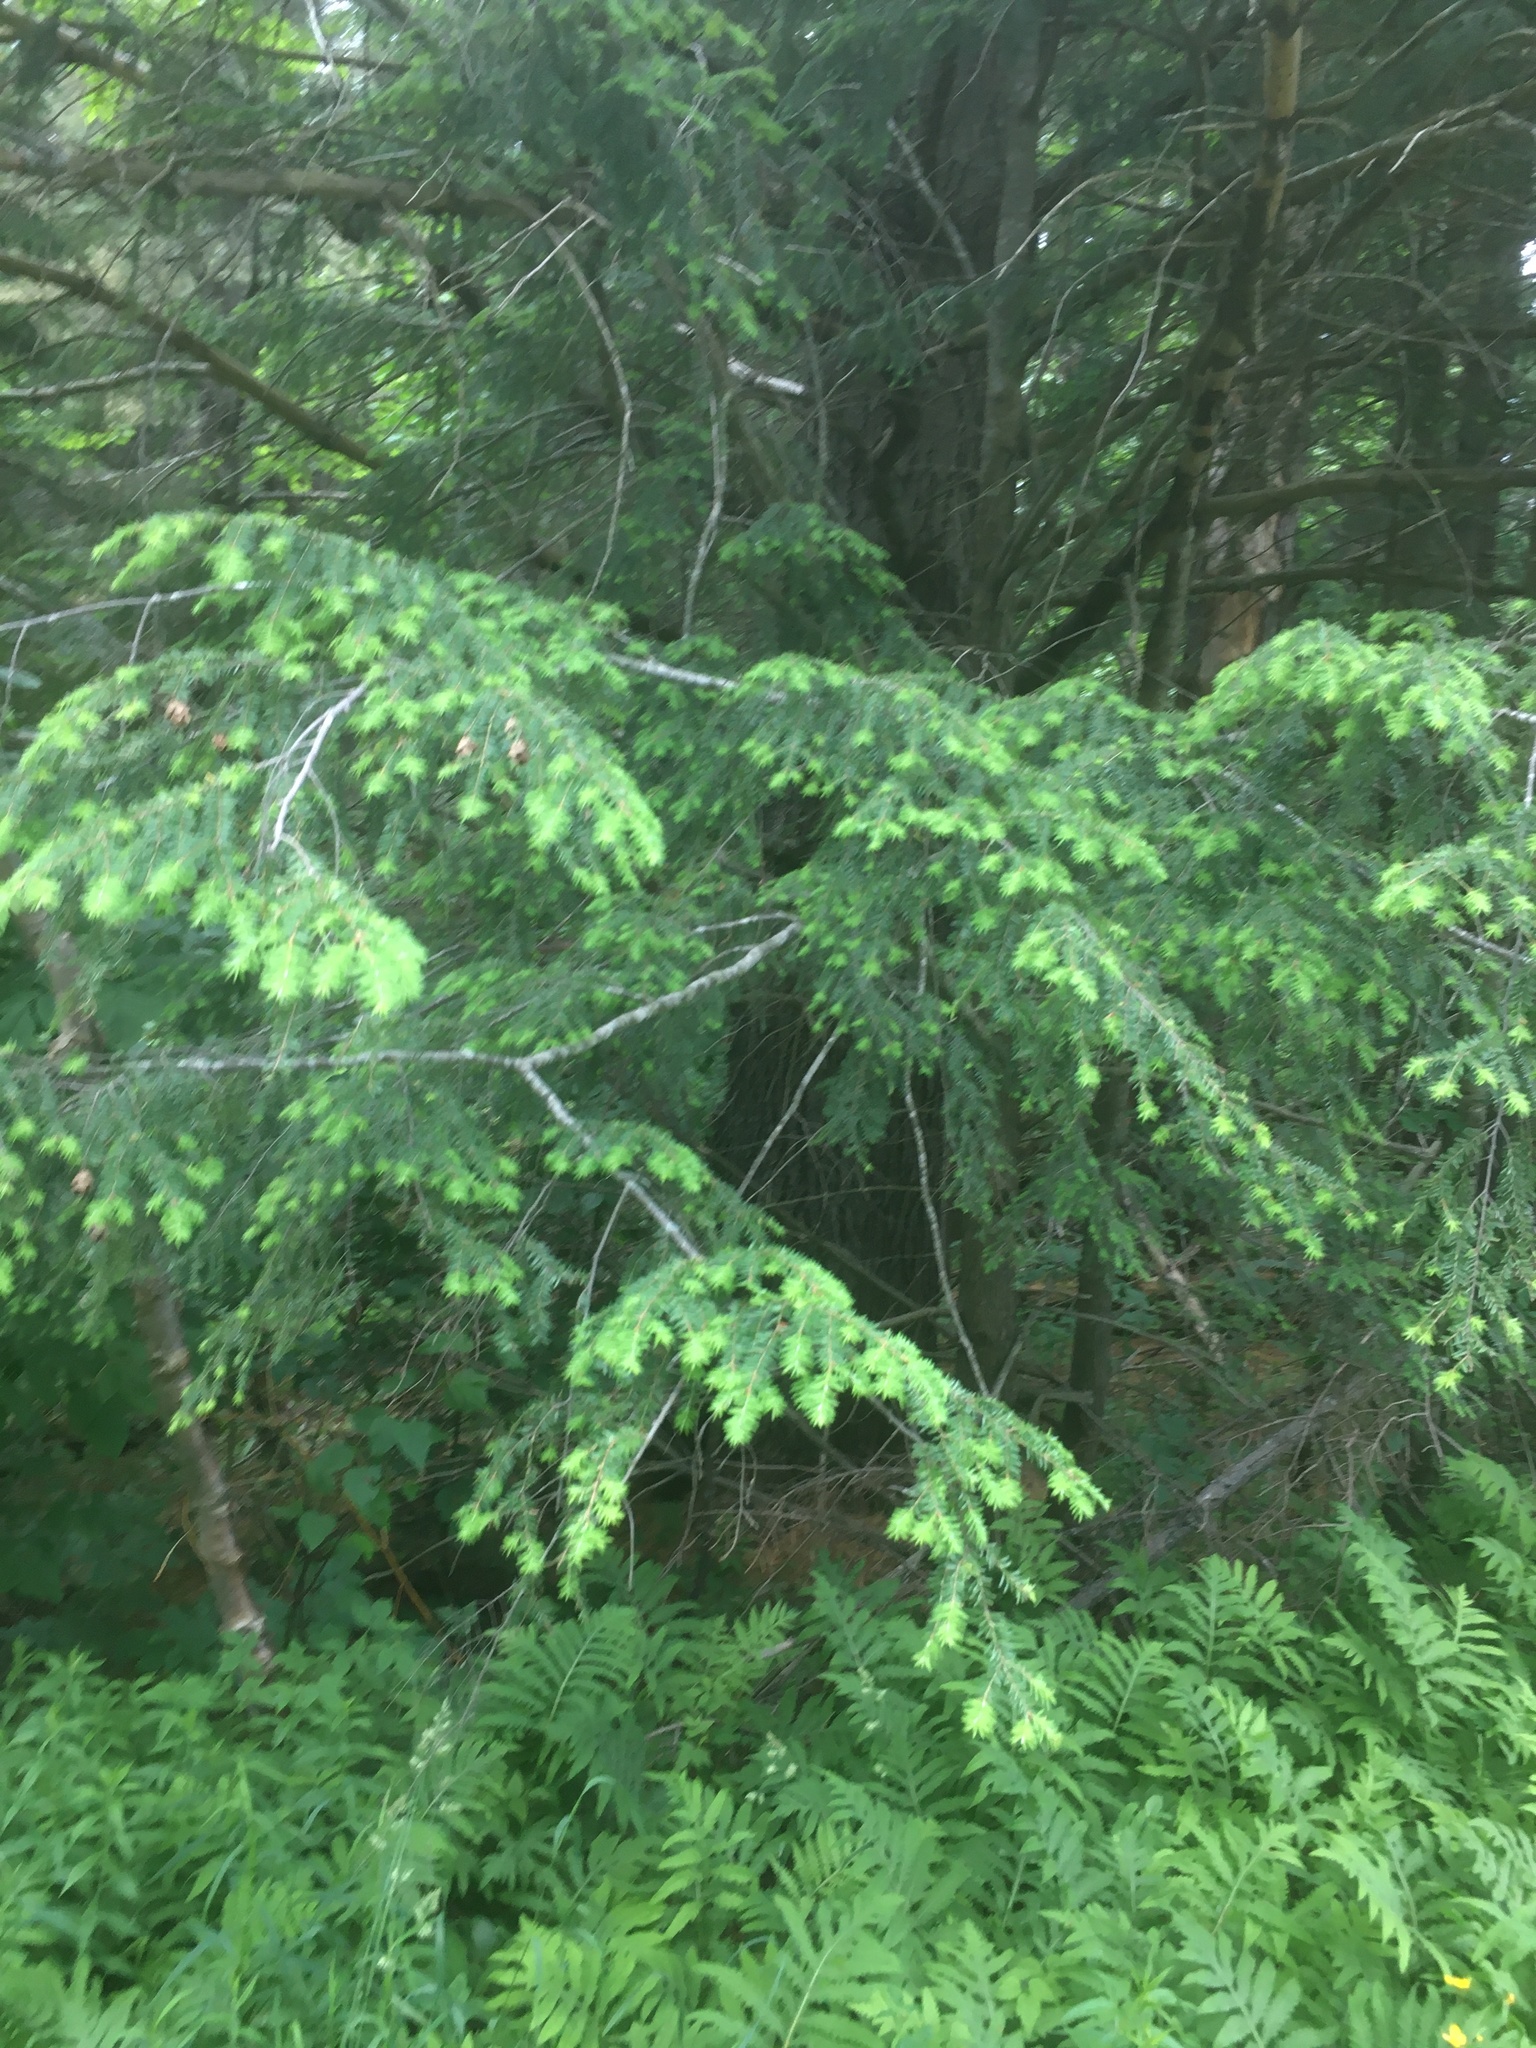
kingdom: Plantae
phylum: Tracheophyta
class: Pinopsida
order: Pinales
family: Pinaceae
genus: Tsuga
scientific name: Tsuga canadensis
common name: Eastern hemlock
